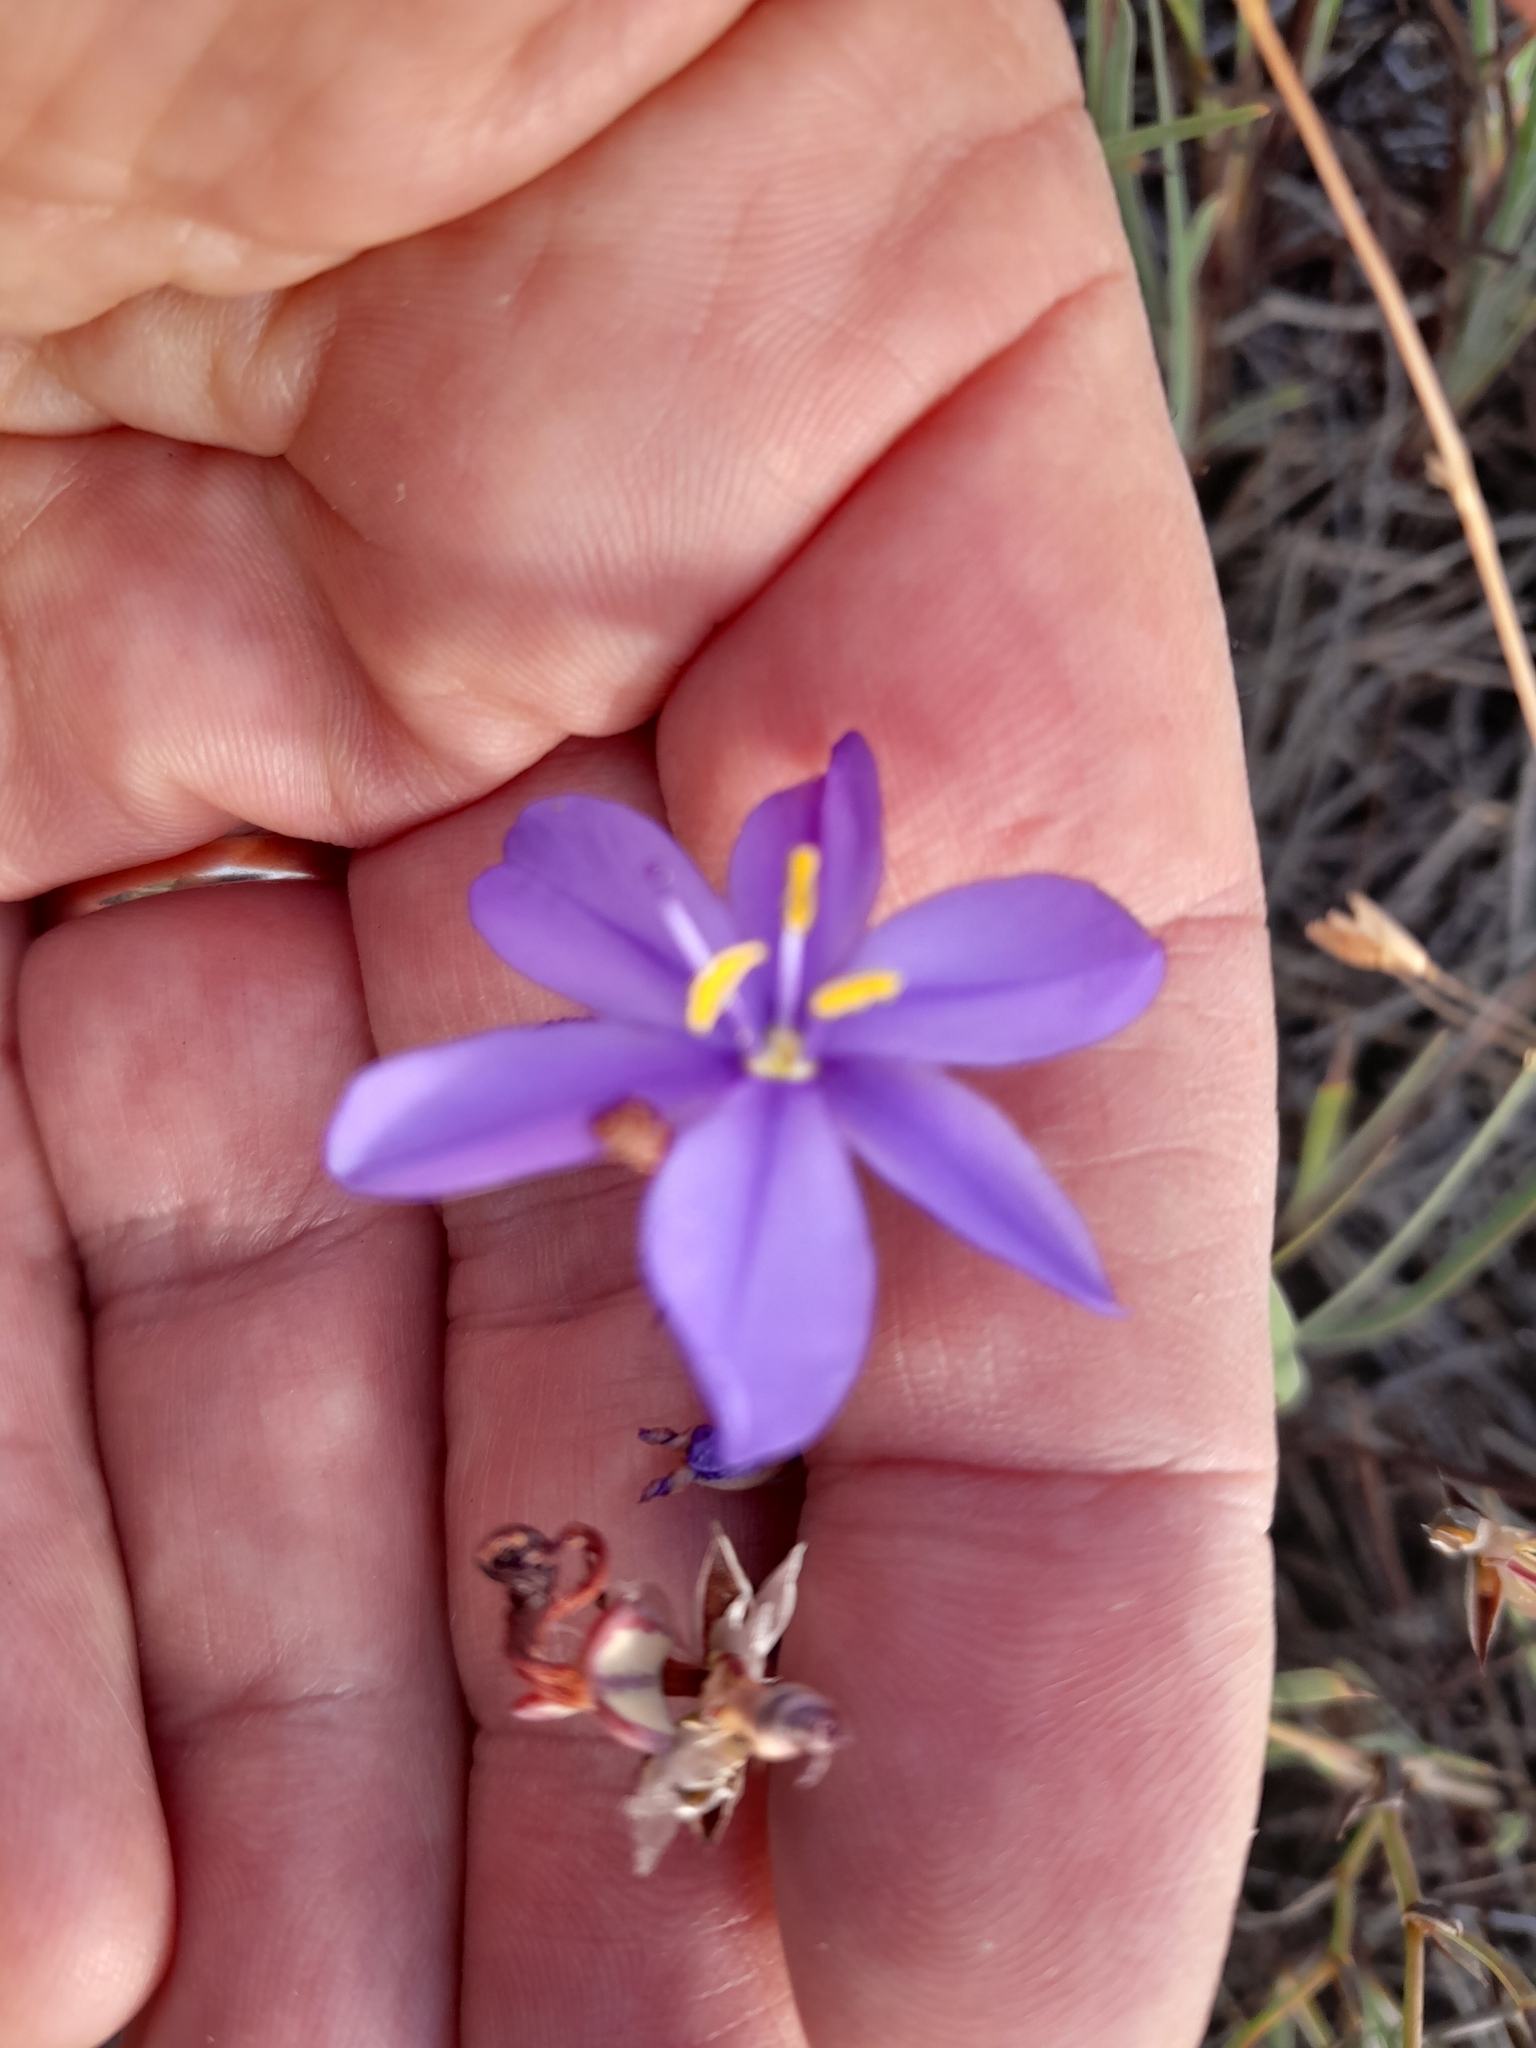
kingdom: Plantae
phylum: Tracheophyta
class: Liliopsida
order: Asparagales
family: Iridaceae
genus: Aristea
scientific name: Aristea dichotoma
